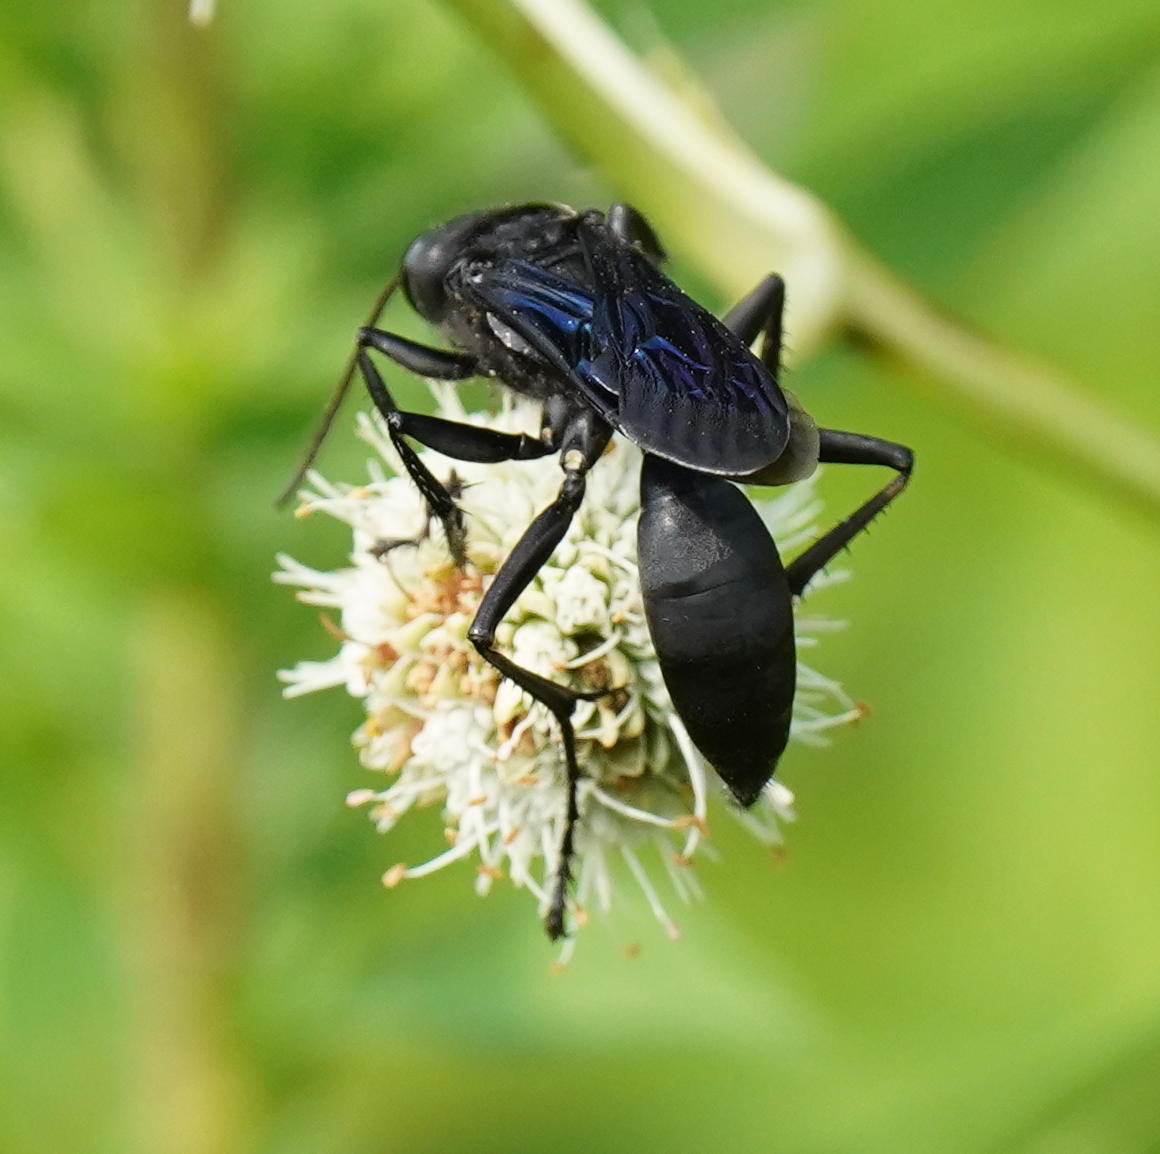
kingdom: Animalia
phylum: Arthropoda
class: Insecta
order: Hymenoptera
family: Sphecidae
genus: Sphex
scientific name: Sphex pensylvanicus
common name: Great black digger wasp
